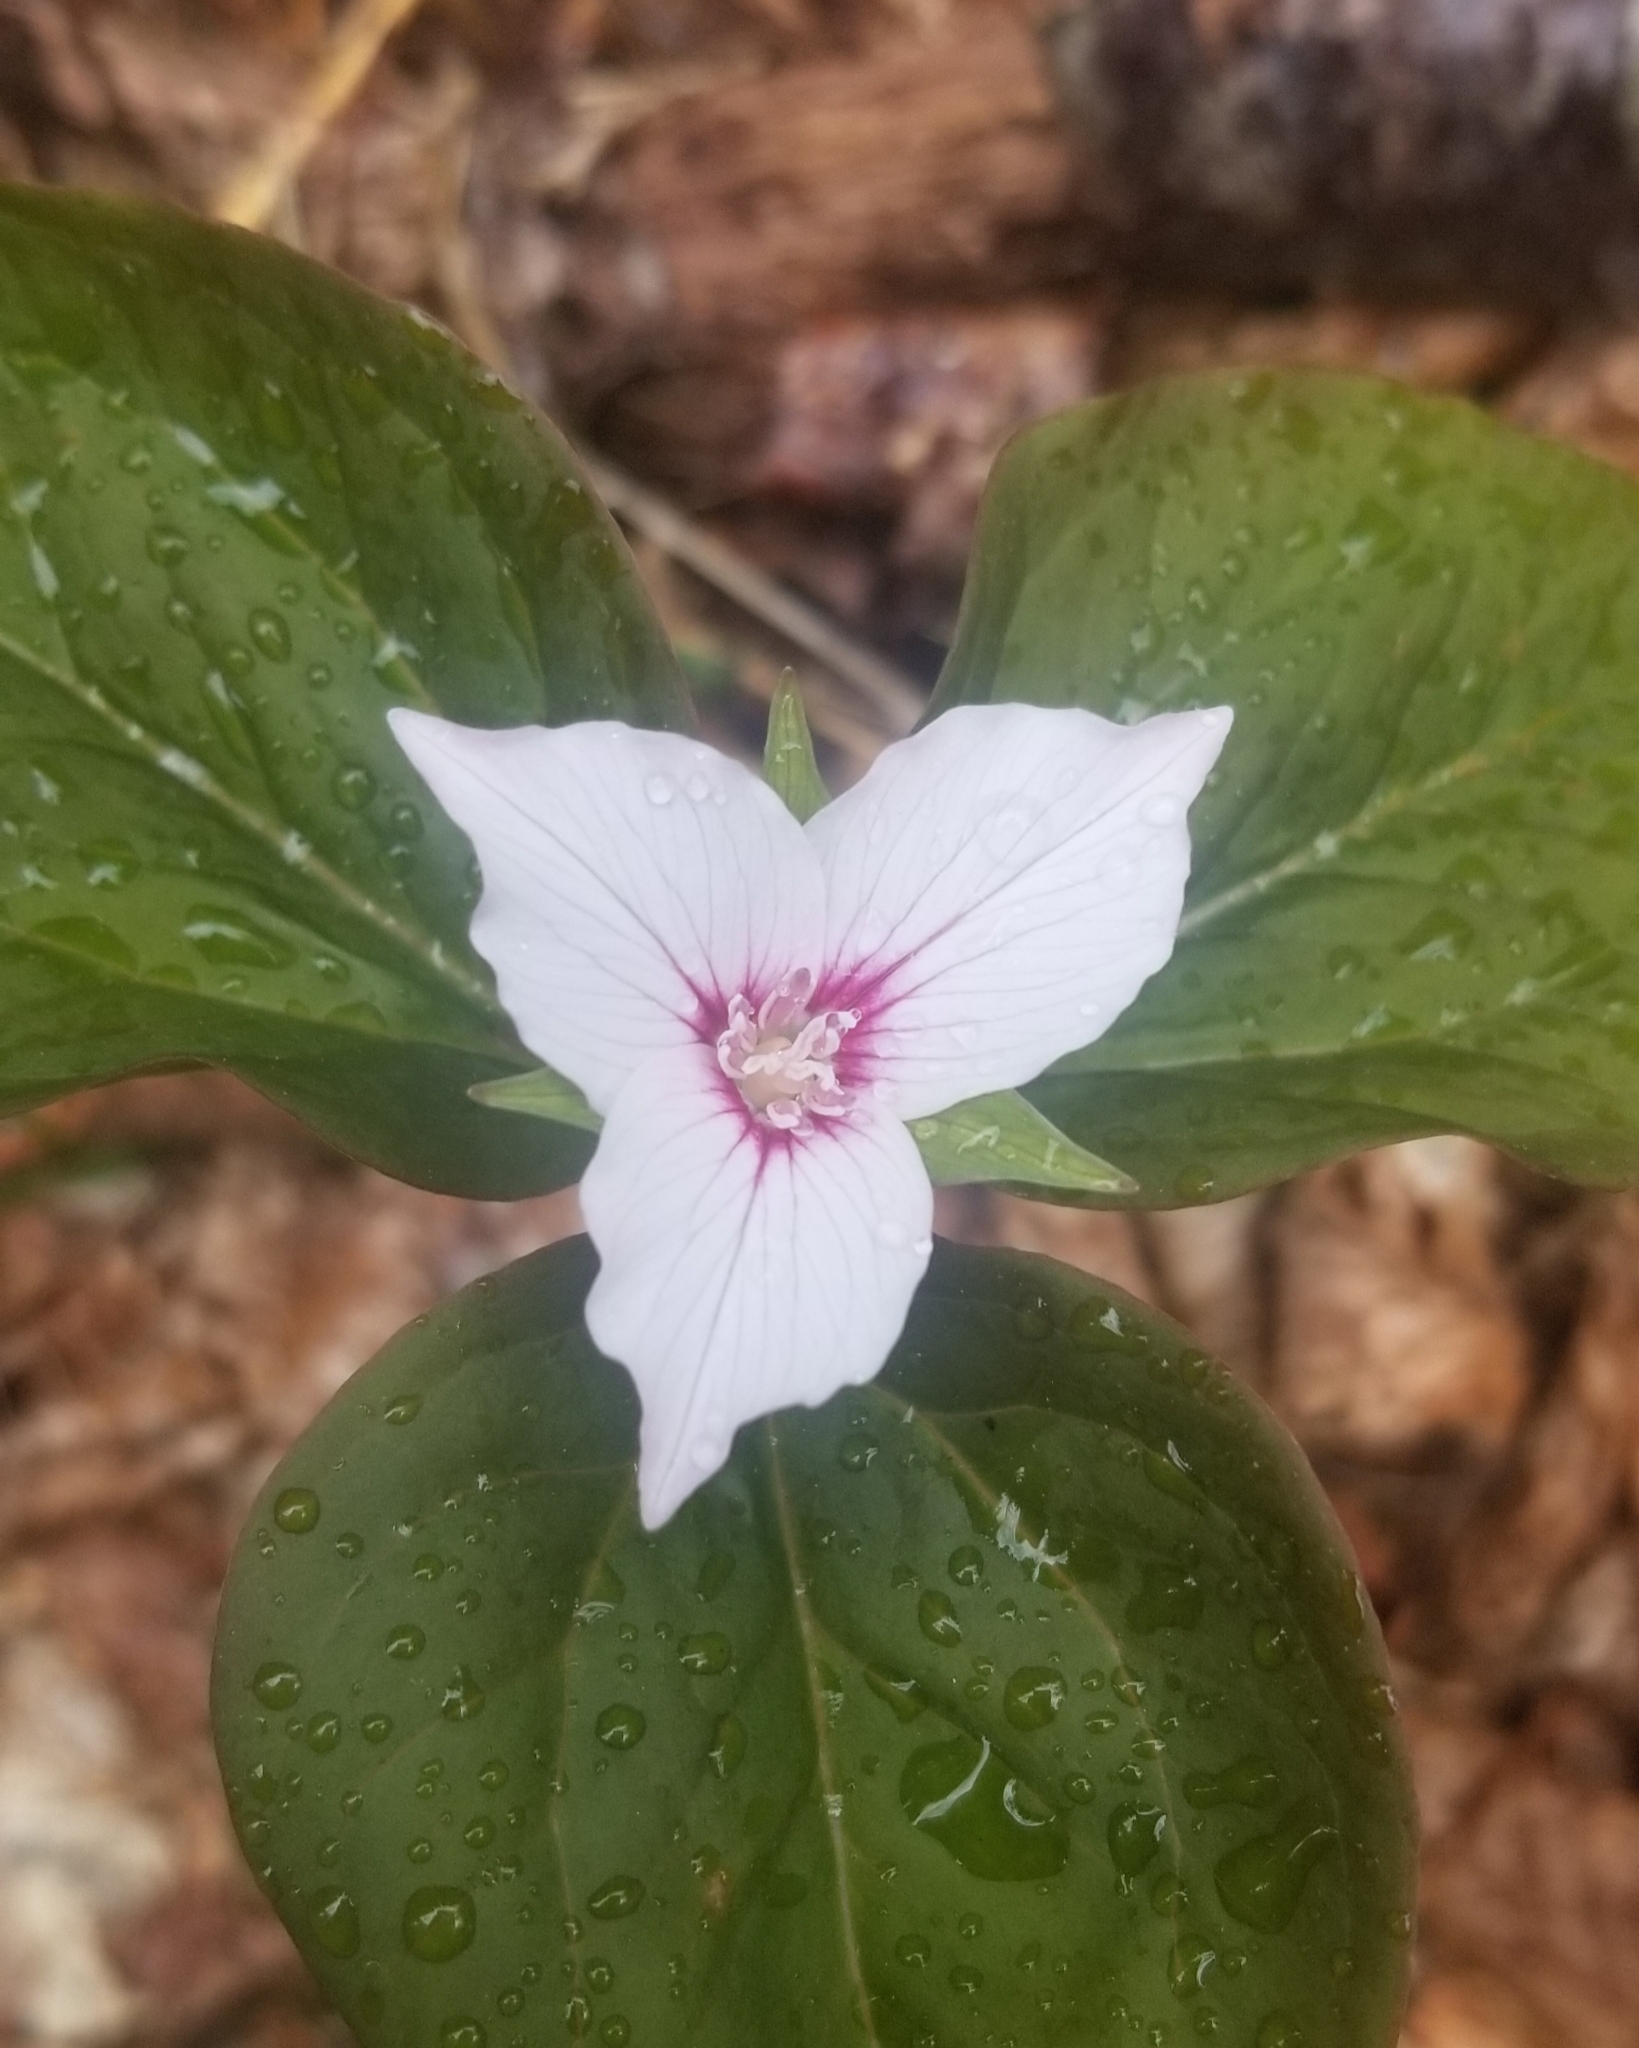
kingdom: Plantae
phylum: Tracheophyta
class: Liliopsida
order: Liliales
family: Melanthiaceae
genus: Trillium
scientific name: Trillium undulatum
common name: Paint trillium
